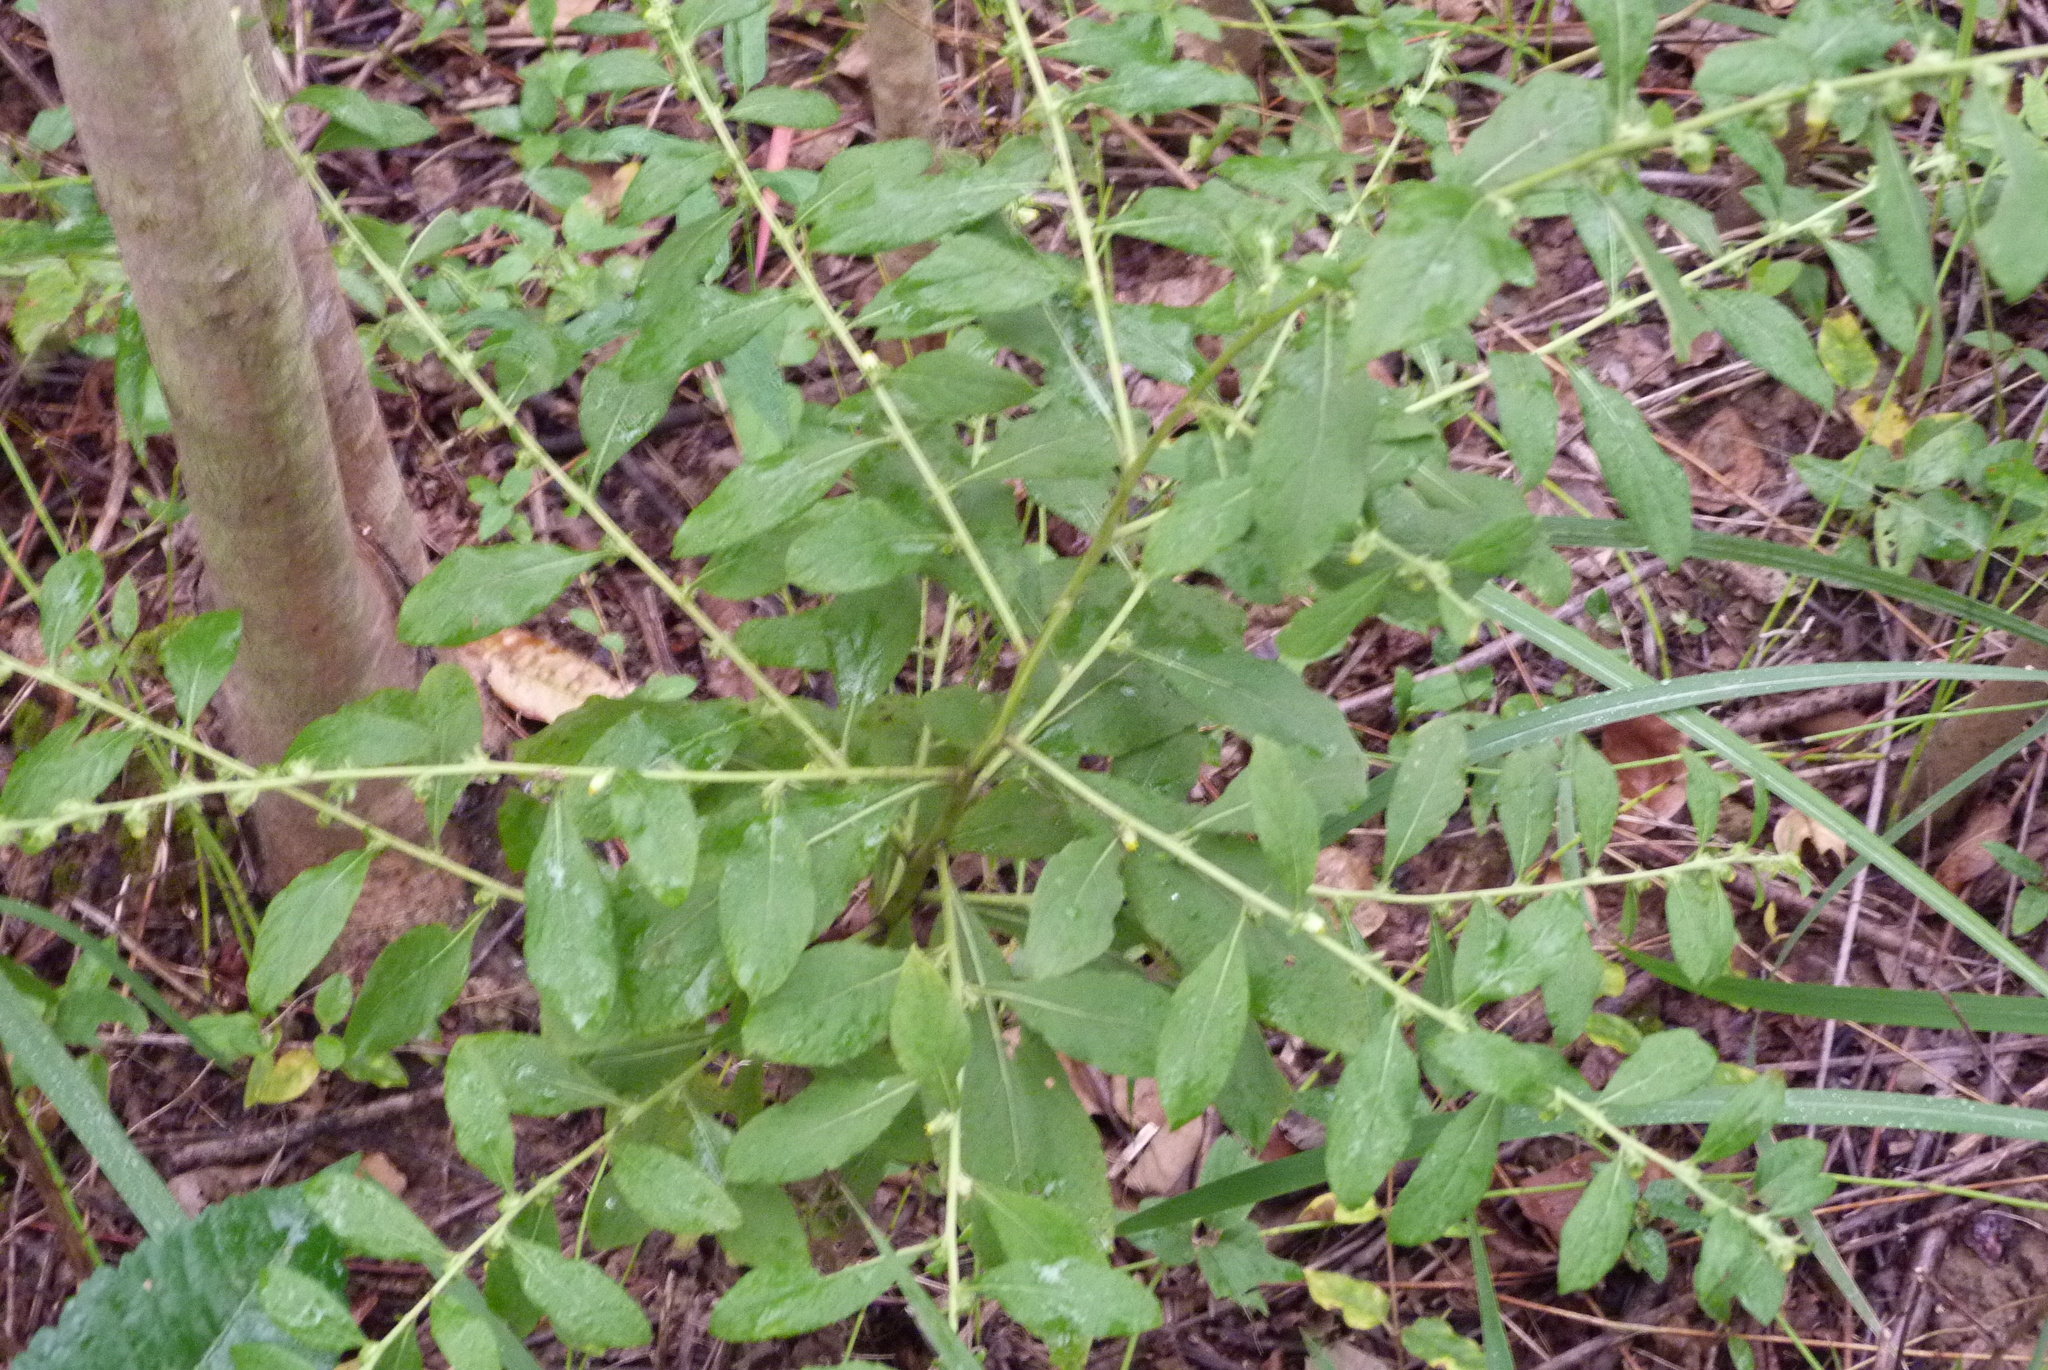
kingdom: Plantae
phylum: Tracheophyta
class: Magnoliopsida
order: Asterales
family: Asteraceae
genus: Carpesium
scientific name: Carpesium abrotanoides
